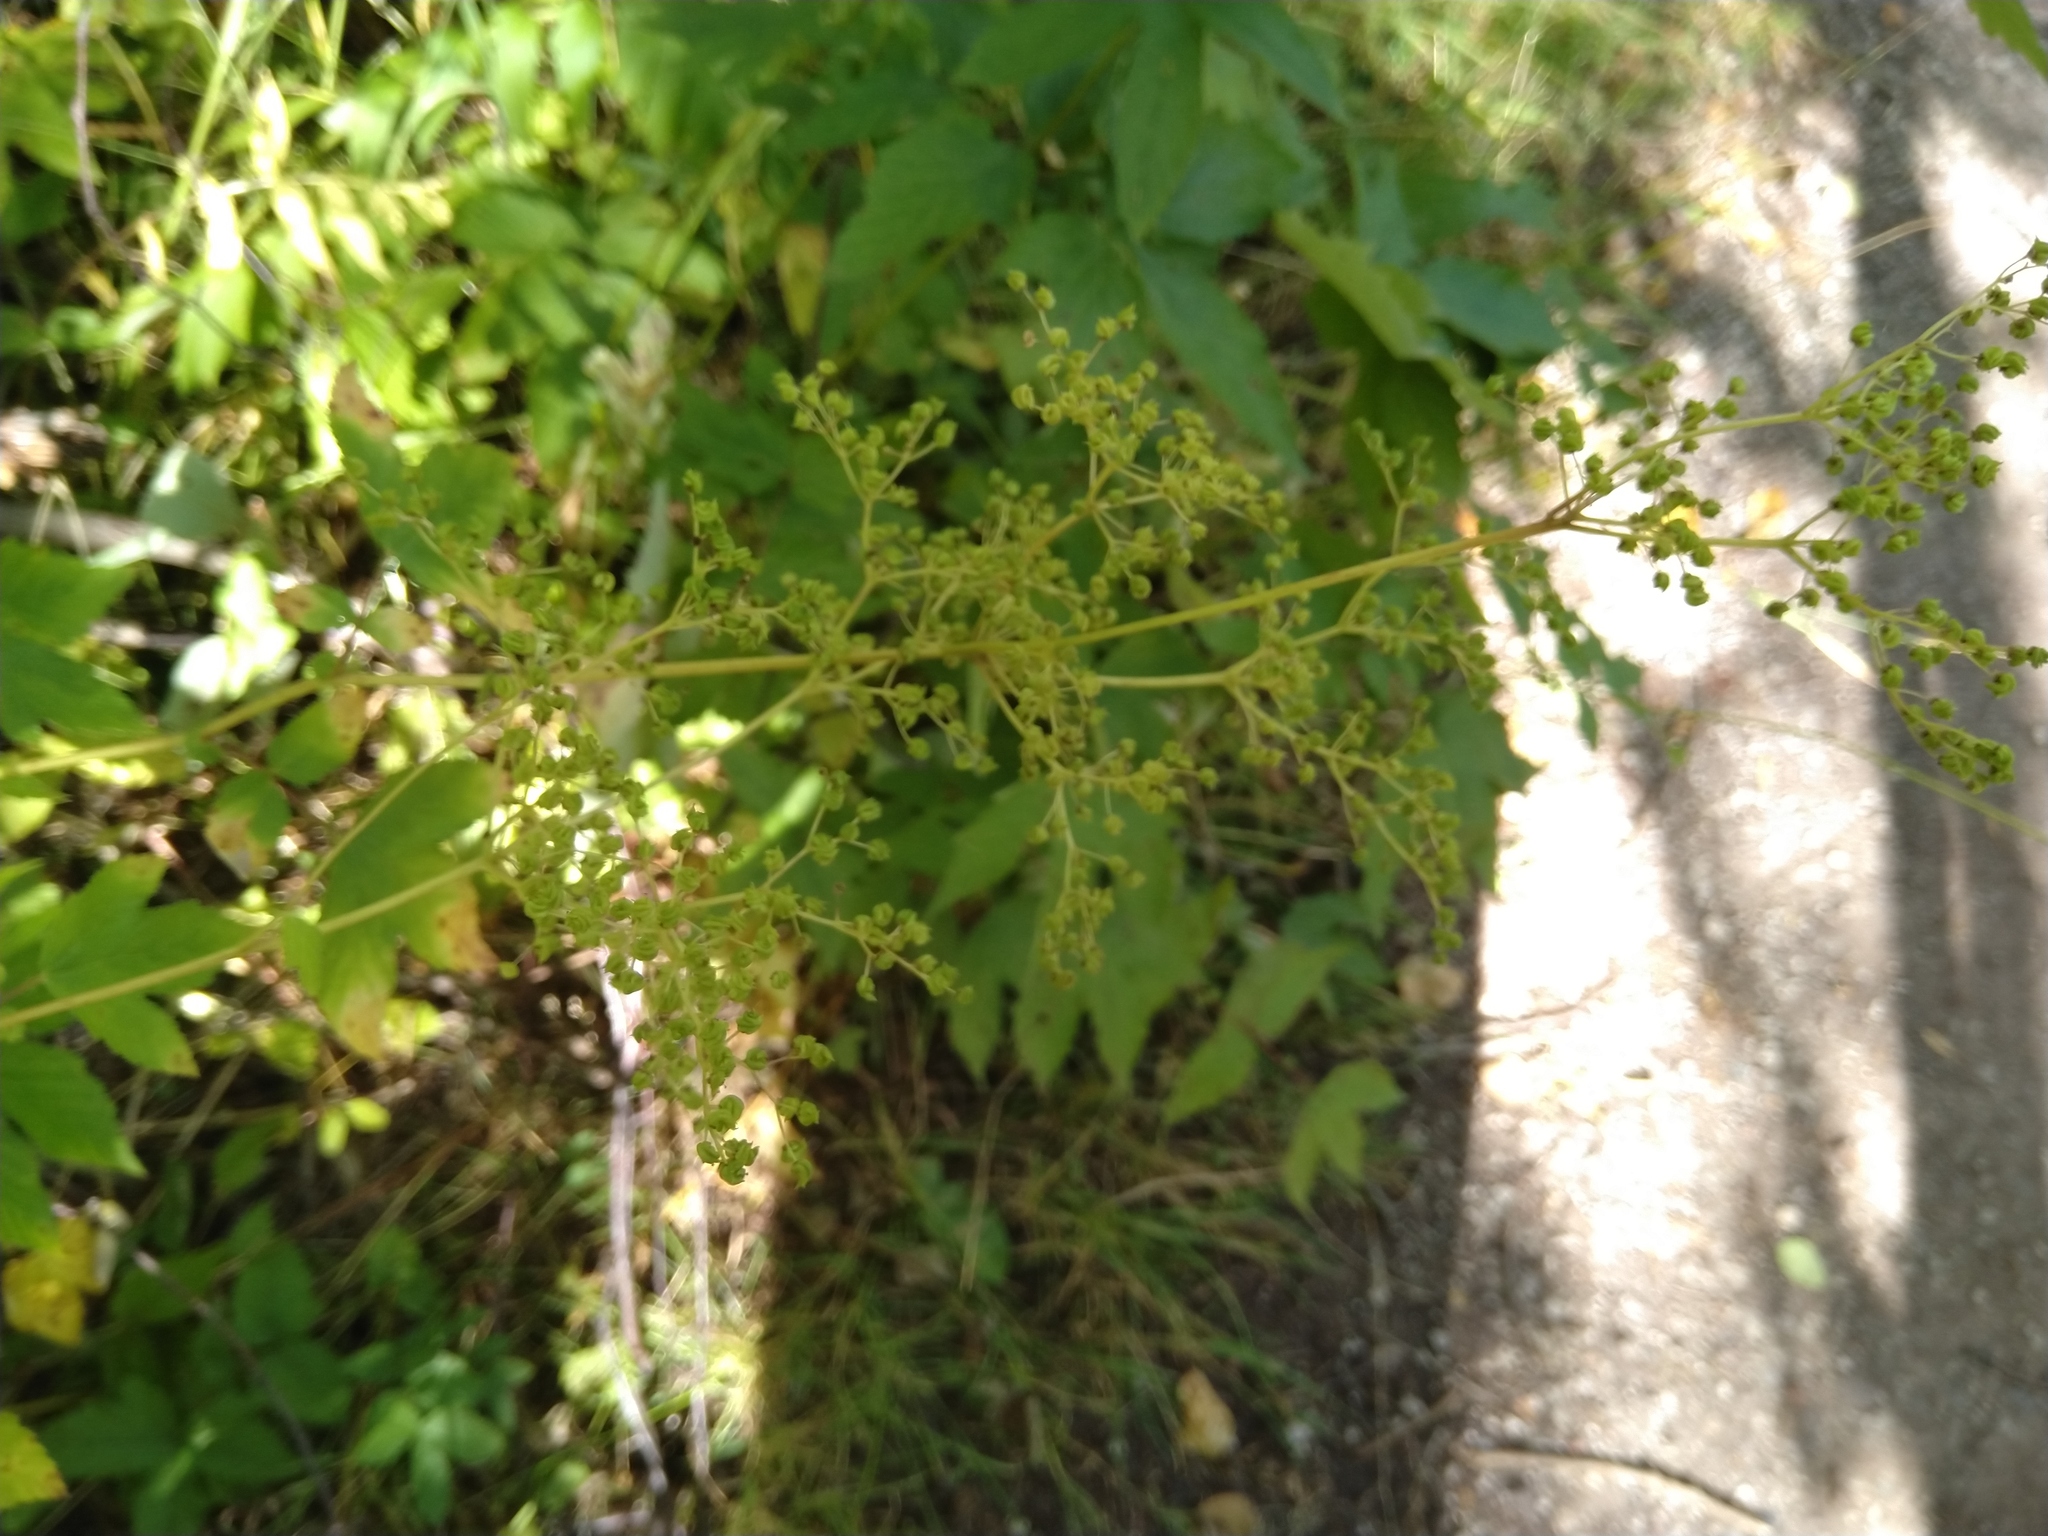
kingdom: Plantae
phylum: Tracheophyta
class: Magnoliopsida
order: Rosales
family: Rosaceae
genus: Filipendula
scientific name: Filipendula ulmaria
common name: Meadowsweet
